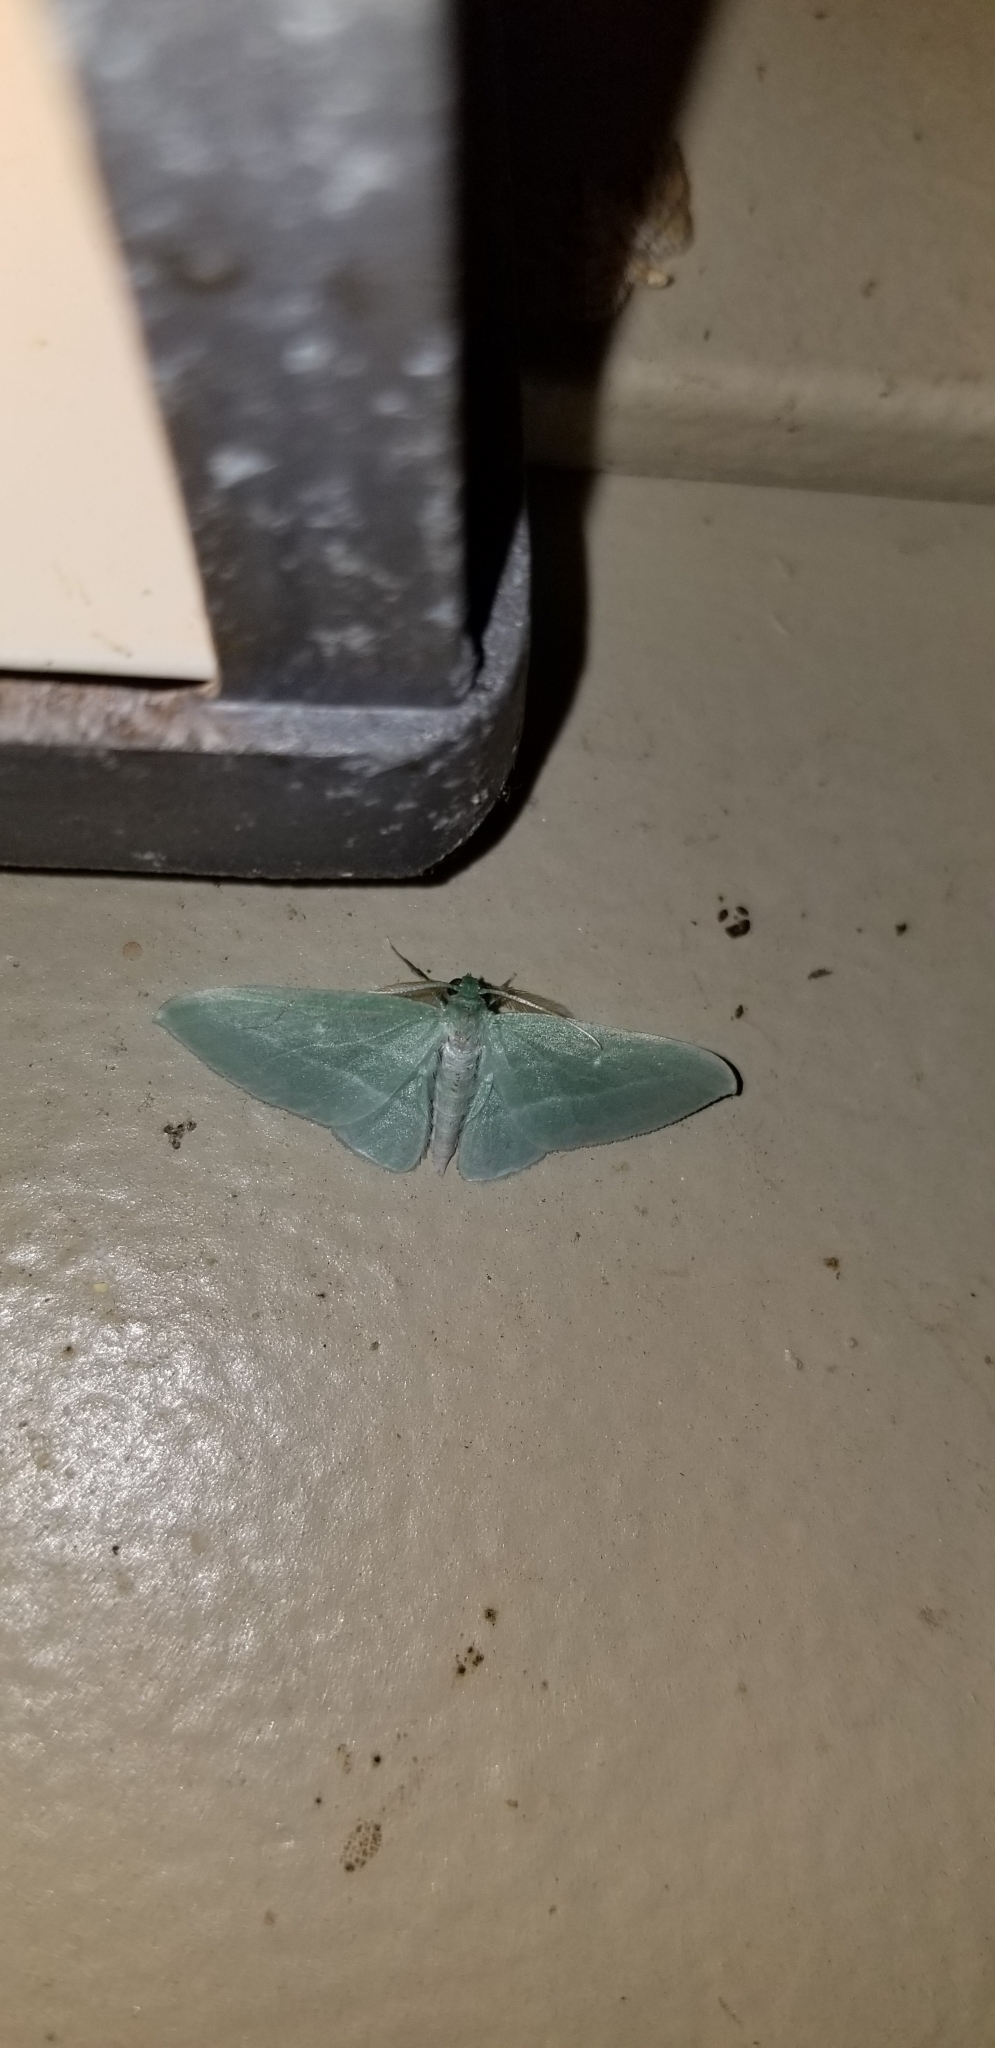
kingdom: Animalia
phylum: Arthropoda
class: Insecta
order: Lepidoptera
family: Geometridae
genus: Dyspteris
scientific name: Dyspteris abortivaria
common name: Bad-wing
